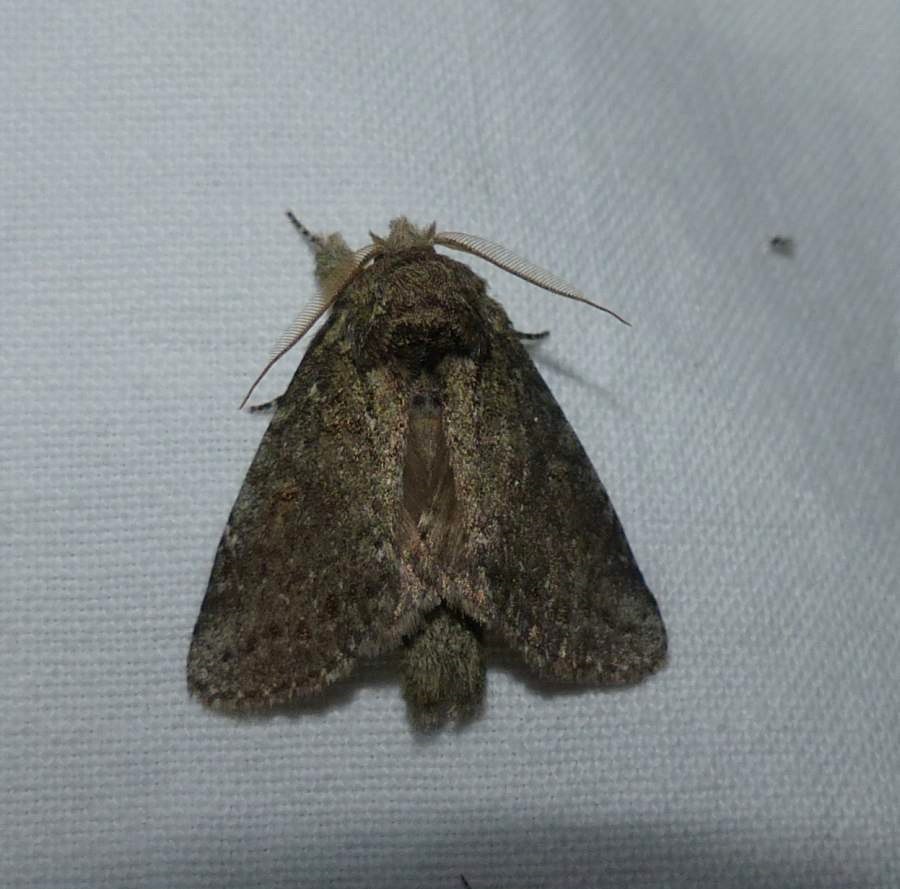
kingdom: Animalia
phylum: Arthropoda
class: Insecta
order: Lepidoptera
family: Notodontidae
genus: Disphragis
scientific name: Disphragis Cecrita guttivitta
